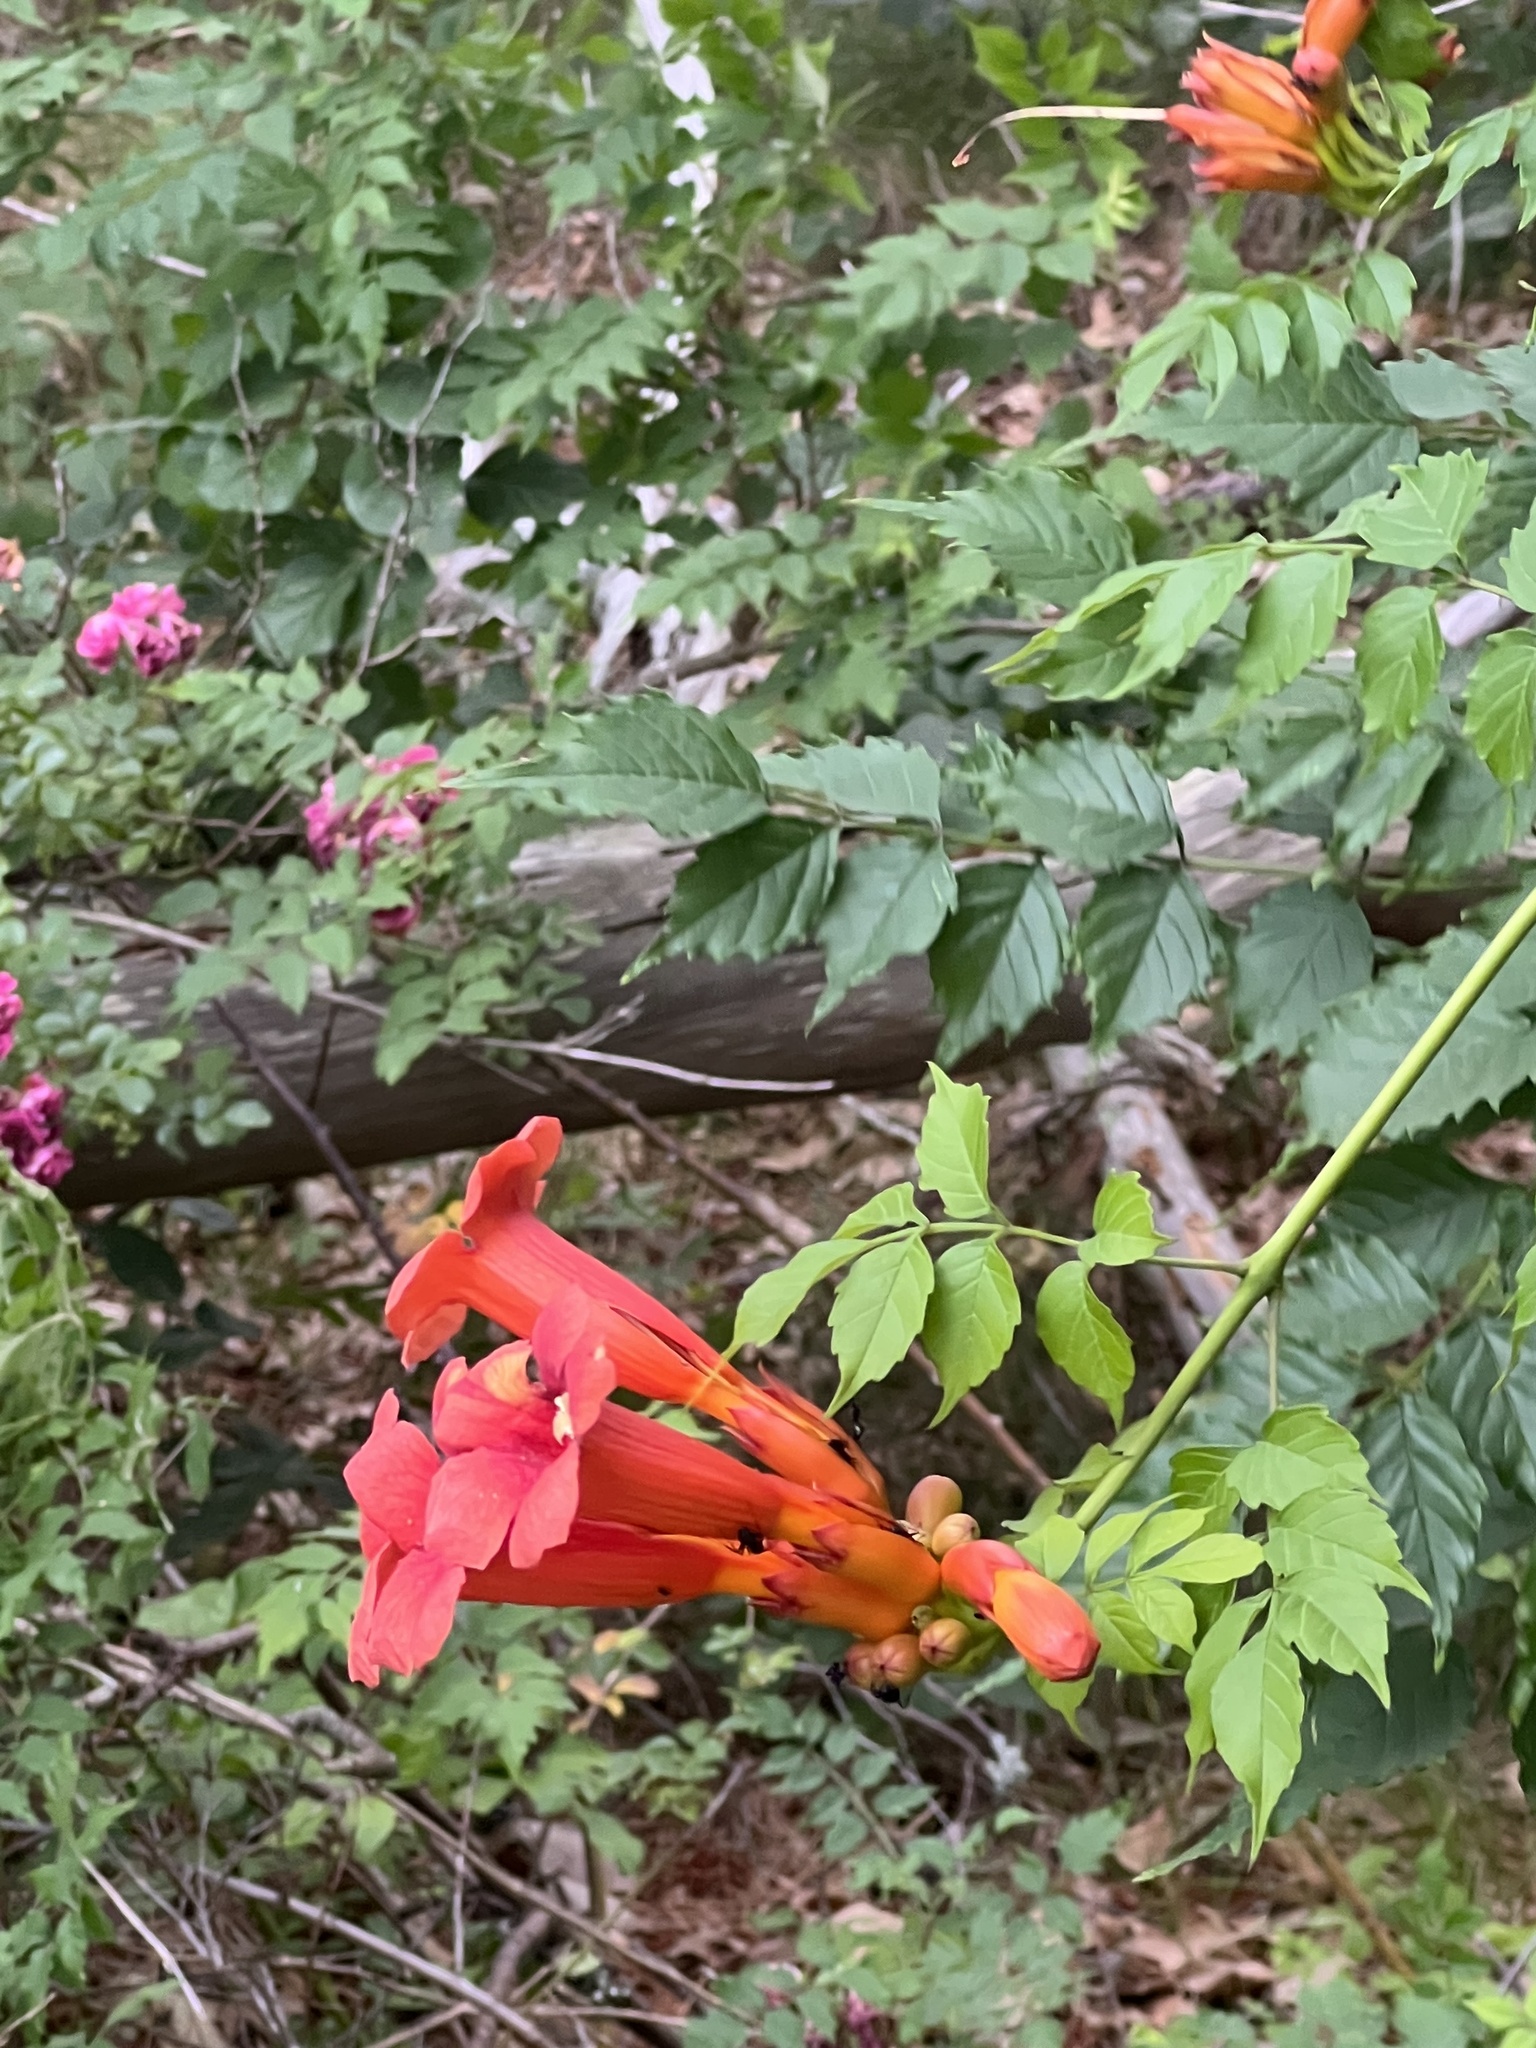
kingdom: Plantae
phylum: Tracheophyta
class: Magnoliopsida
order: Lamiales
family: Bignoniaceae
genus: Campsis
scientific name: Campsis radicans
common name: Trumpet-creeper
